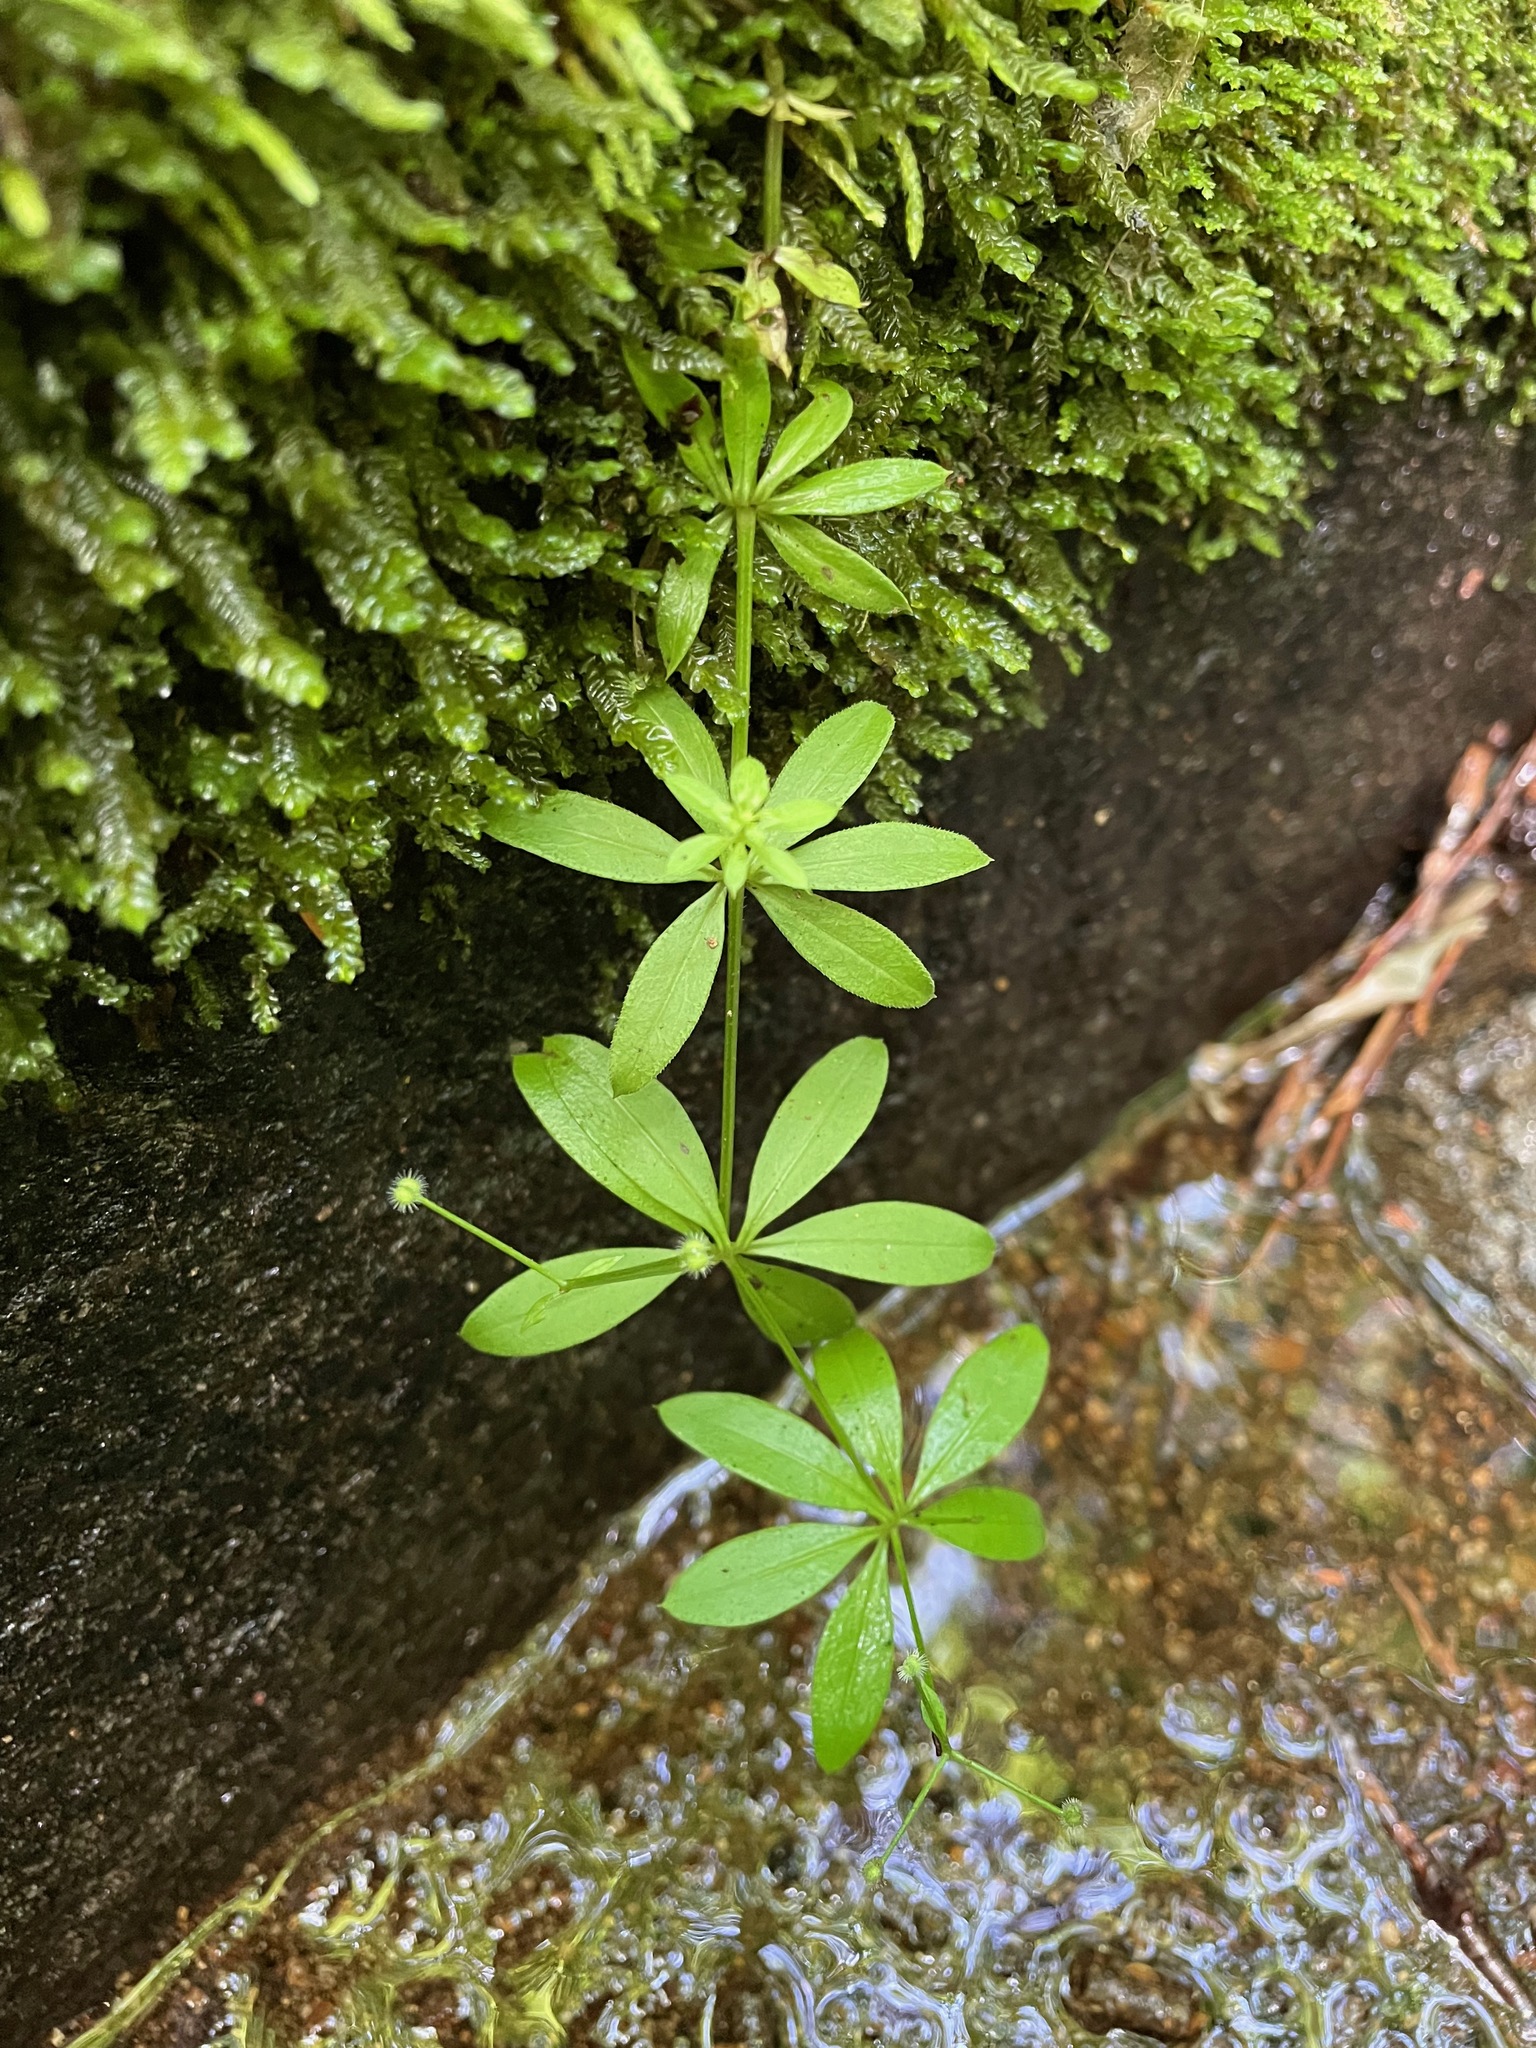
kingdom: Plantae
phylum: Tracheophyta
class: Magnoliopsida
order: Gentianales
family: Rubiaceae
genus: Galium
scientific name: Galium triflorum
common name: Fragrant bedstraw
